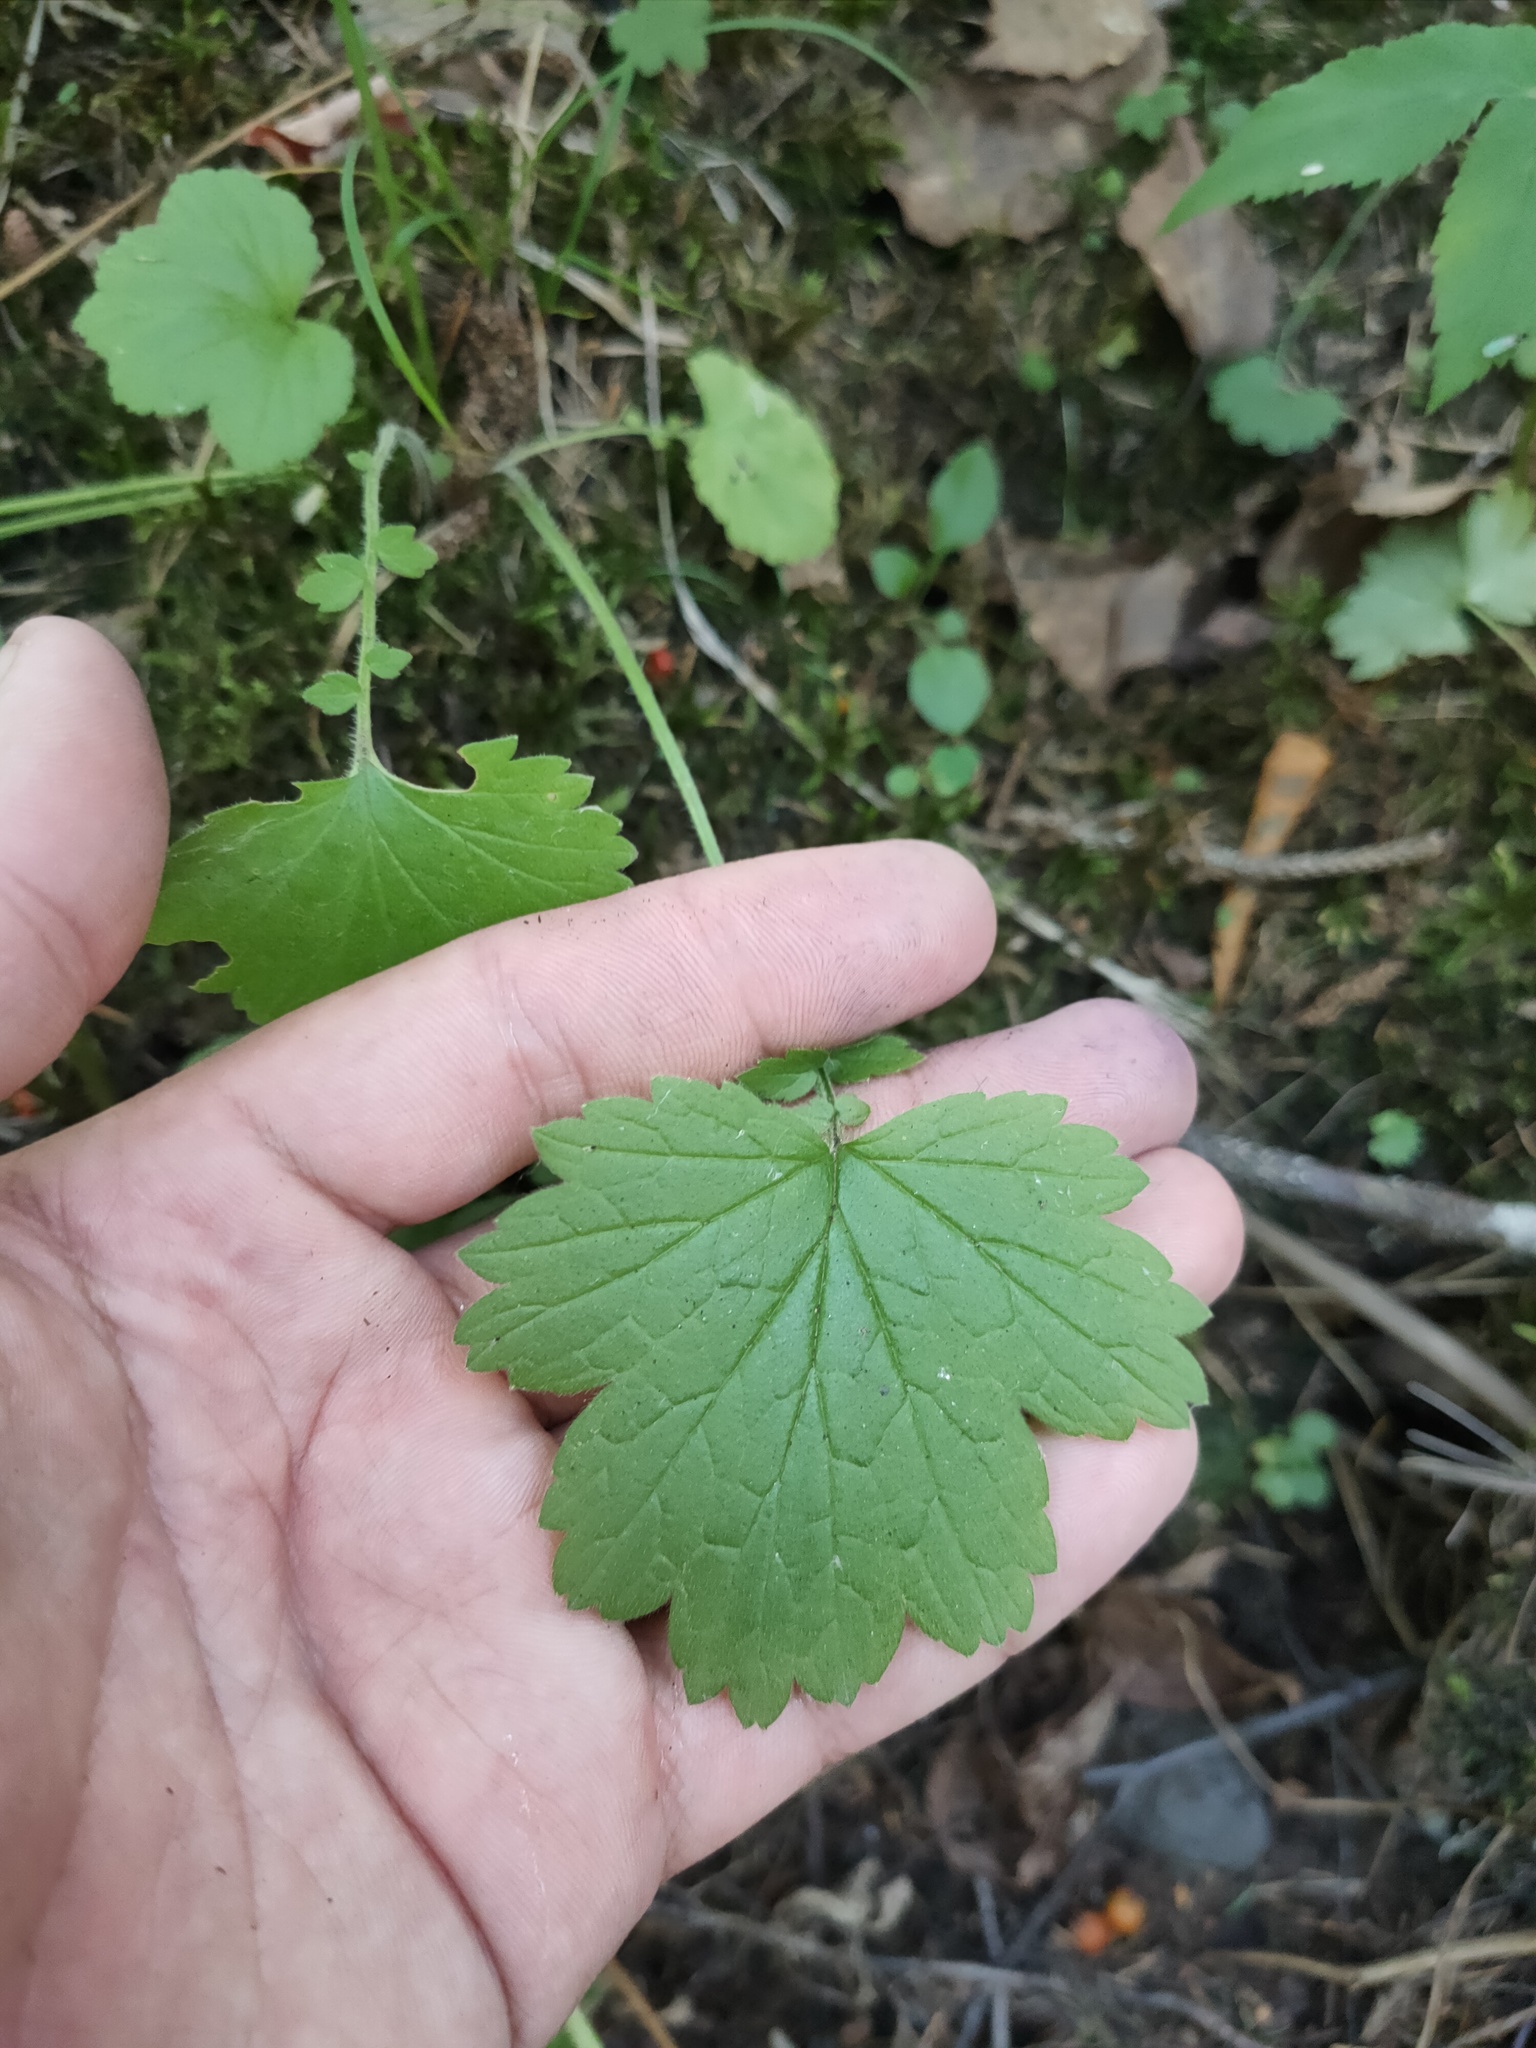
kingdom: Plantae
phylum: Tracheophyta
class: Magnoliopsida
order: Rosales
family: Rosaceae
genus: Geum
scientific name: Geum
